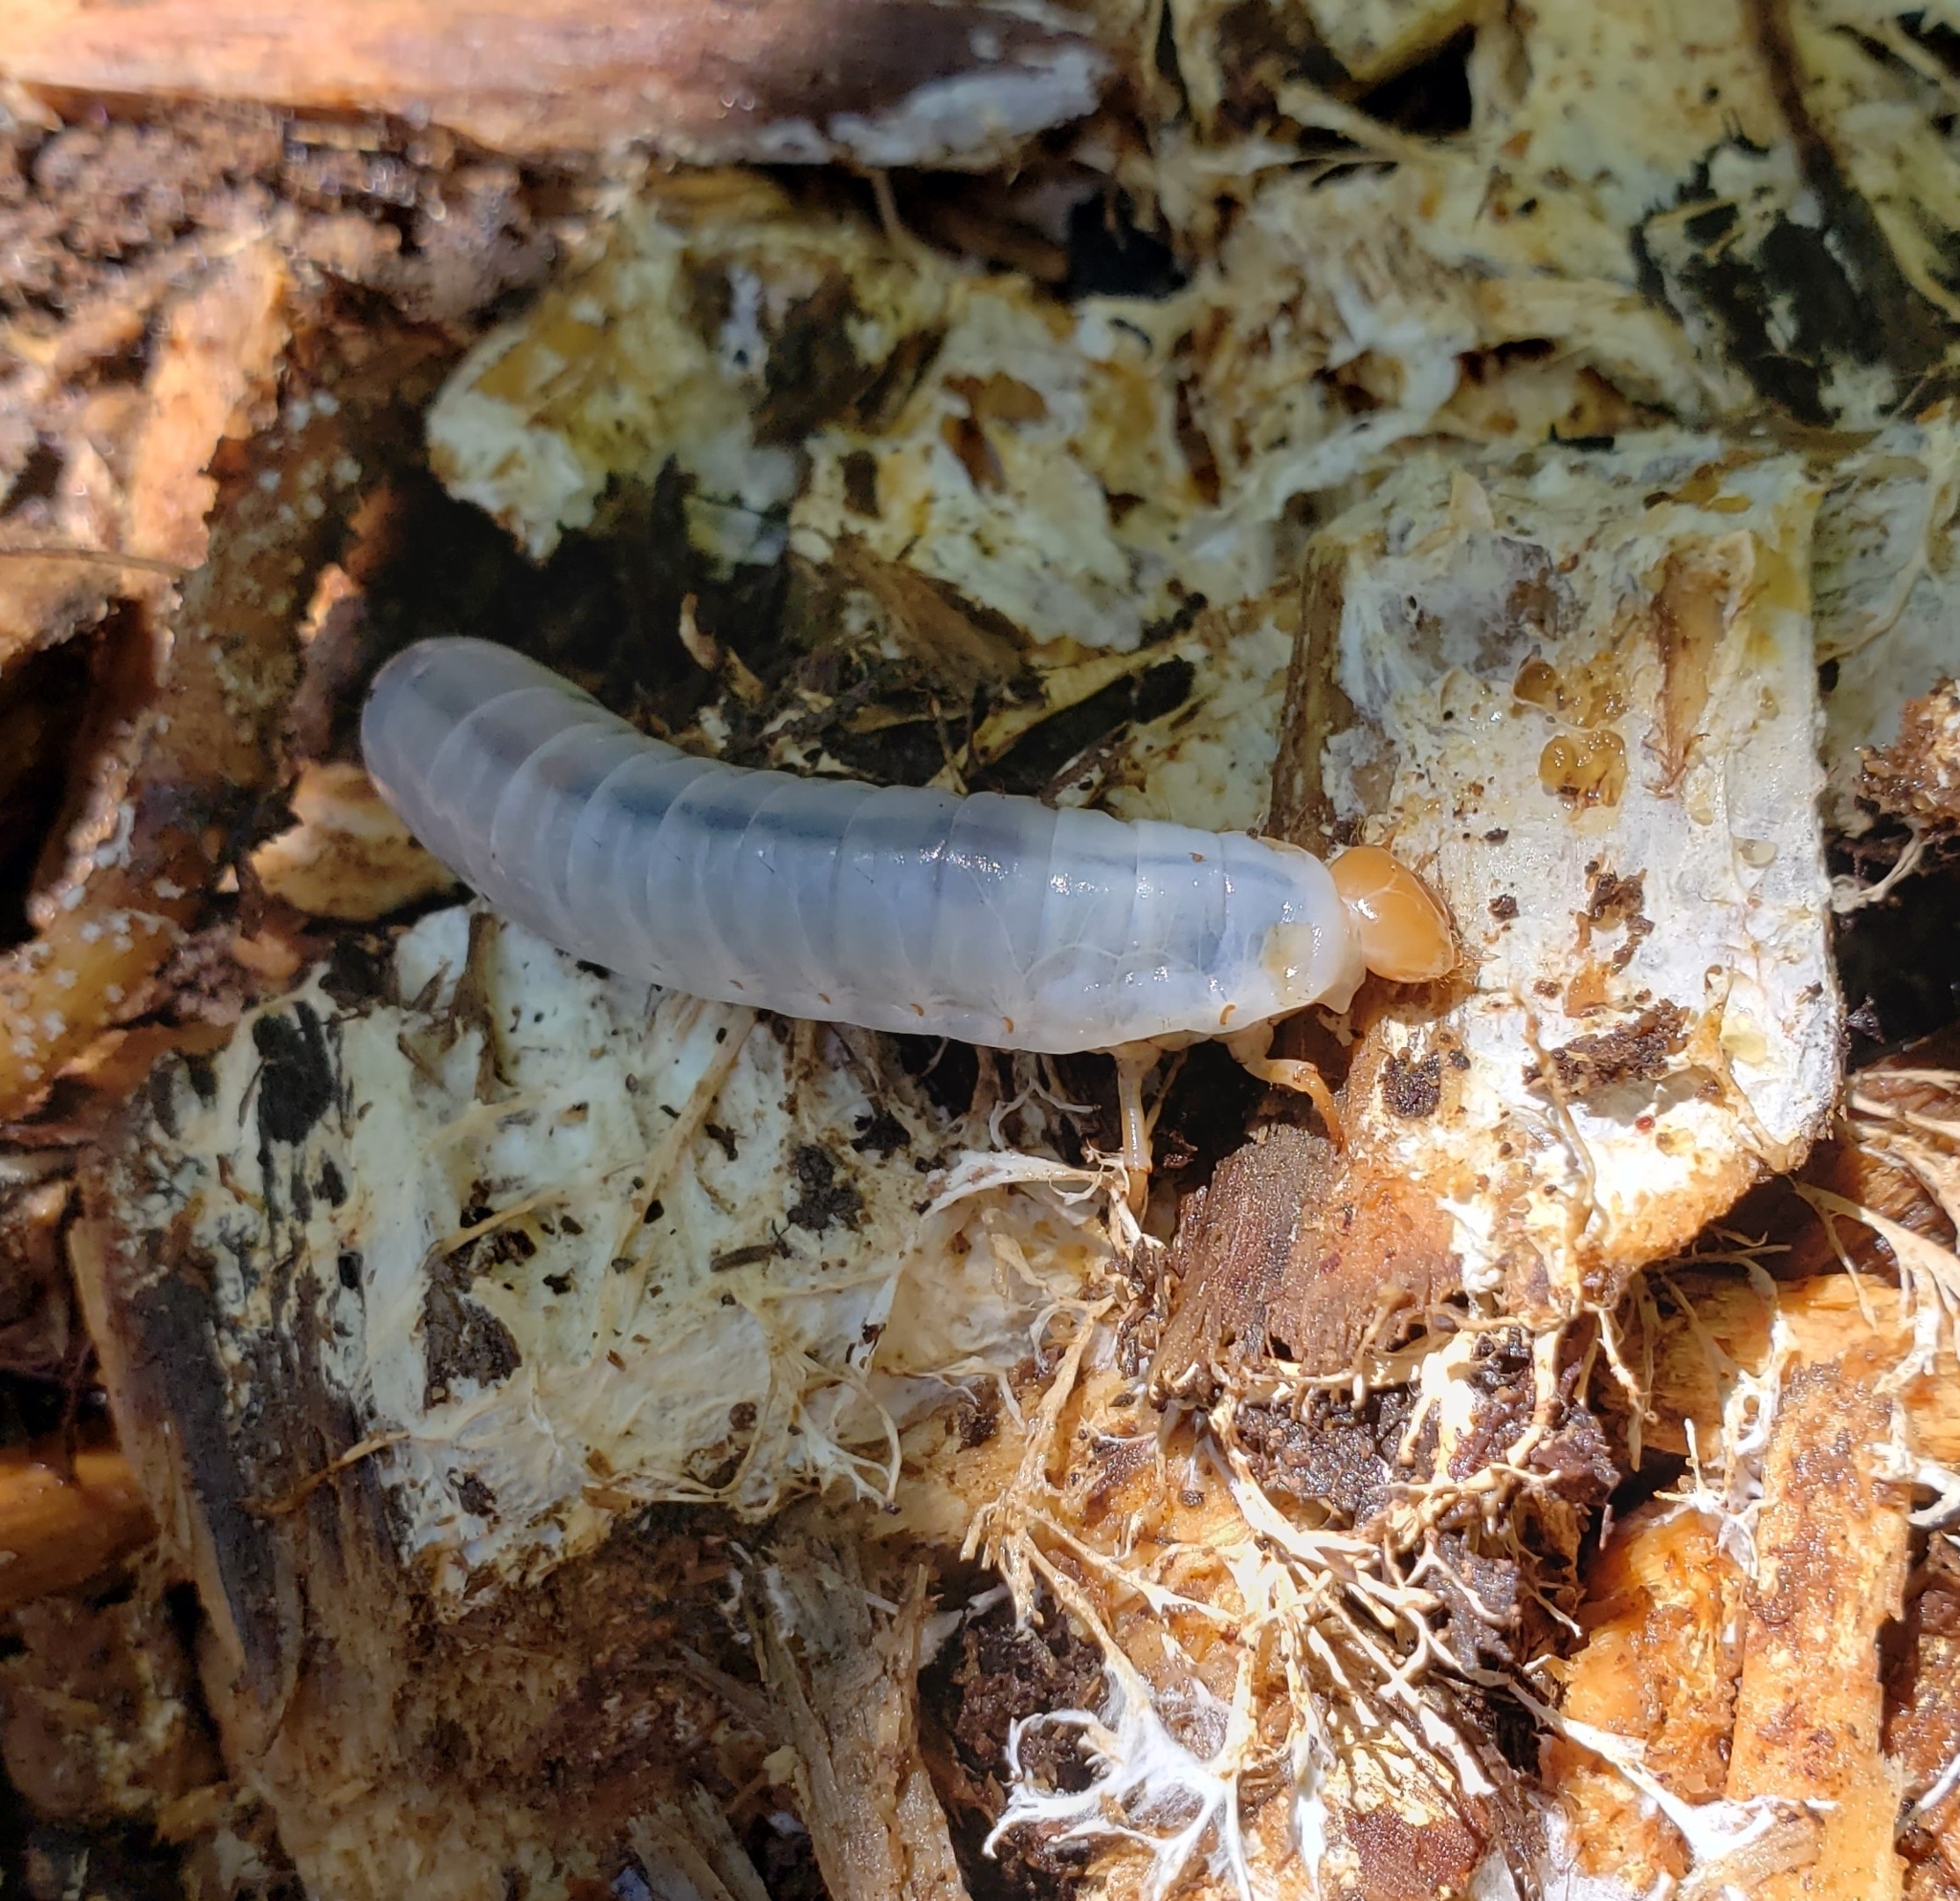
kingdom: Animalia
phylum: Arthropoda
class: Insecta
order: Coleoptera
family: Passalidae
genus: Odontotaenius
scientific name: Odontotaenius disjunctus
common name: Patent leather beetle
